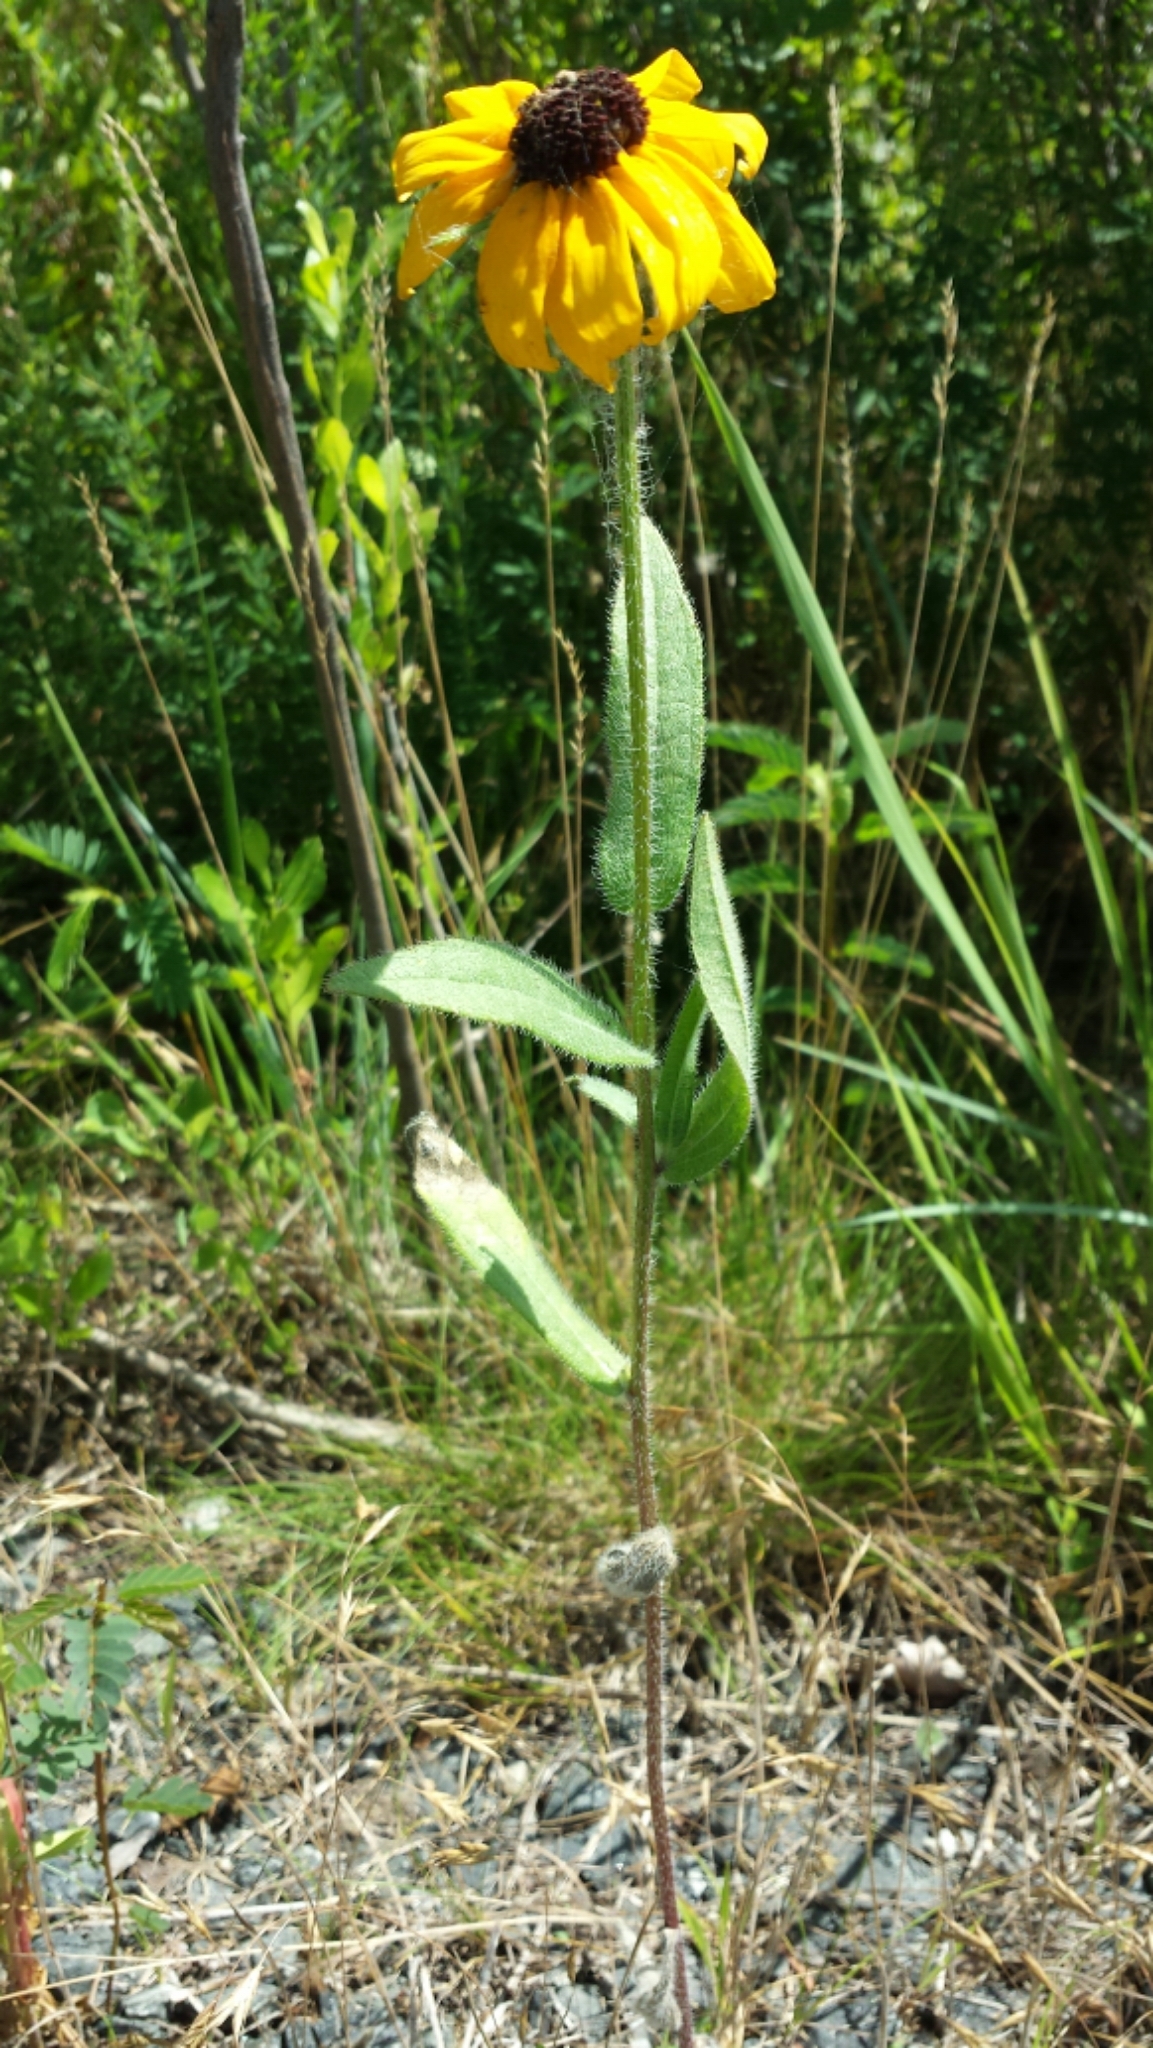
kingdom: Plantae
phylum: Tracheophyta
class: Magnoliopsida
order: Asterales
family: Asteraceae
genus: Rudbeckia
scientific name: Rudbeckia hirta
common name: Black-eyed-susan
